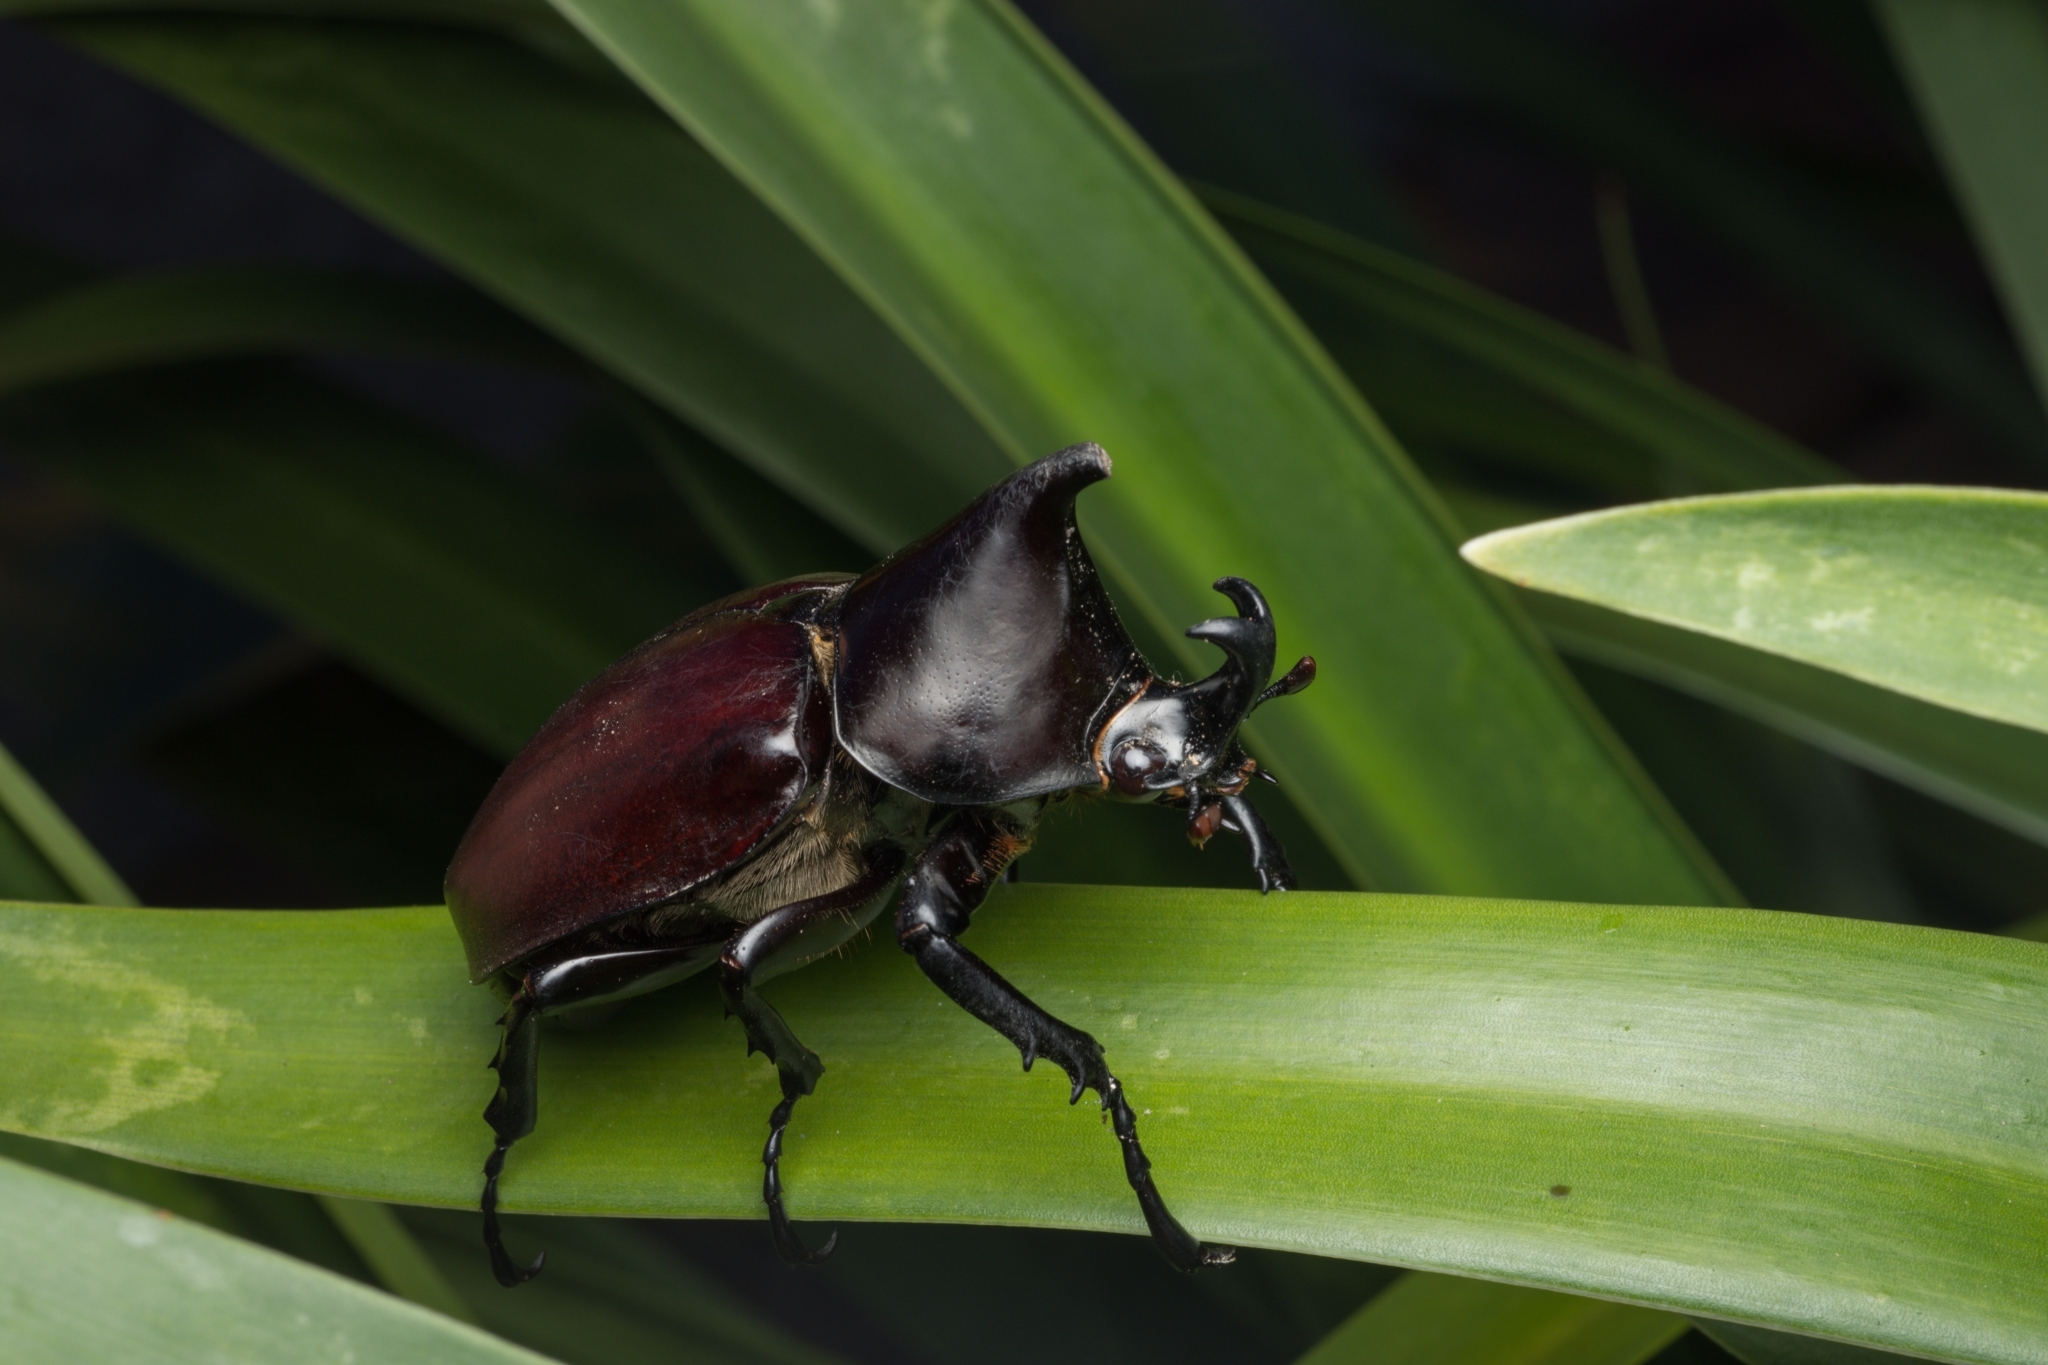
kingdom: Animalia
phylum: Arthropoda
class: Insecta
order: Coleoptera
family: Scarabaeidae
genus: Xylotrupes
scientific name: Xylotrupes australicus
